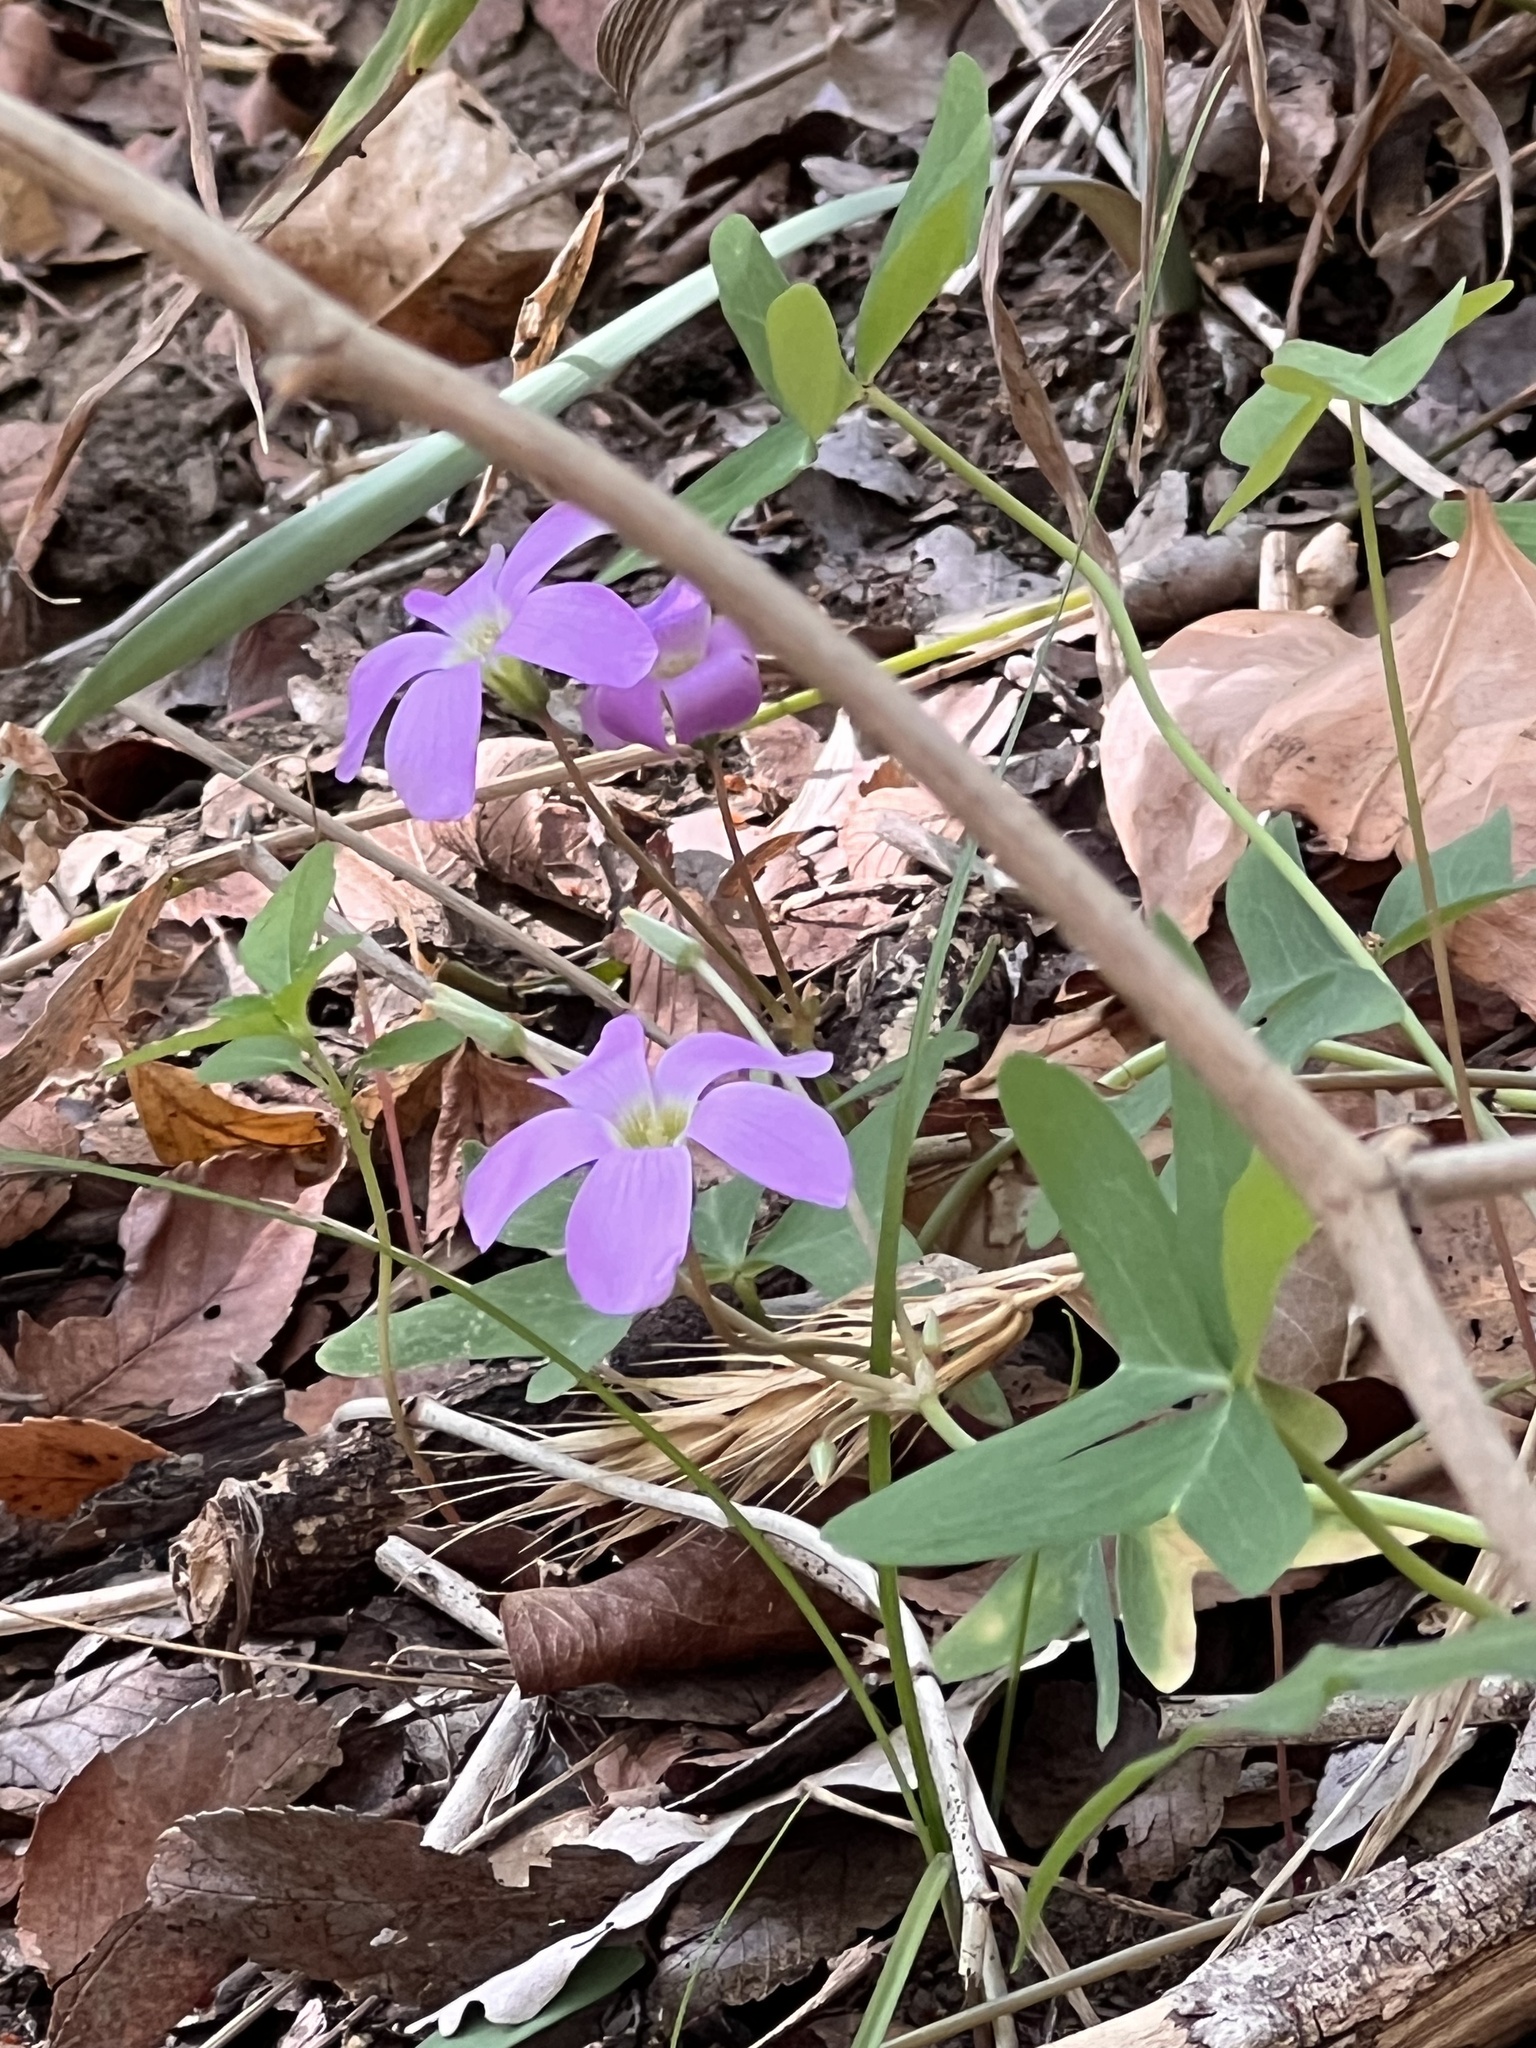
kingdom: Plantae
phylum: Tracheophyta
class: Magnoliopsida
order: Oxalidales
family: Oxalidaceae
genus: Oxalis
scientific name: Oxalis drummondii
